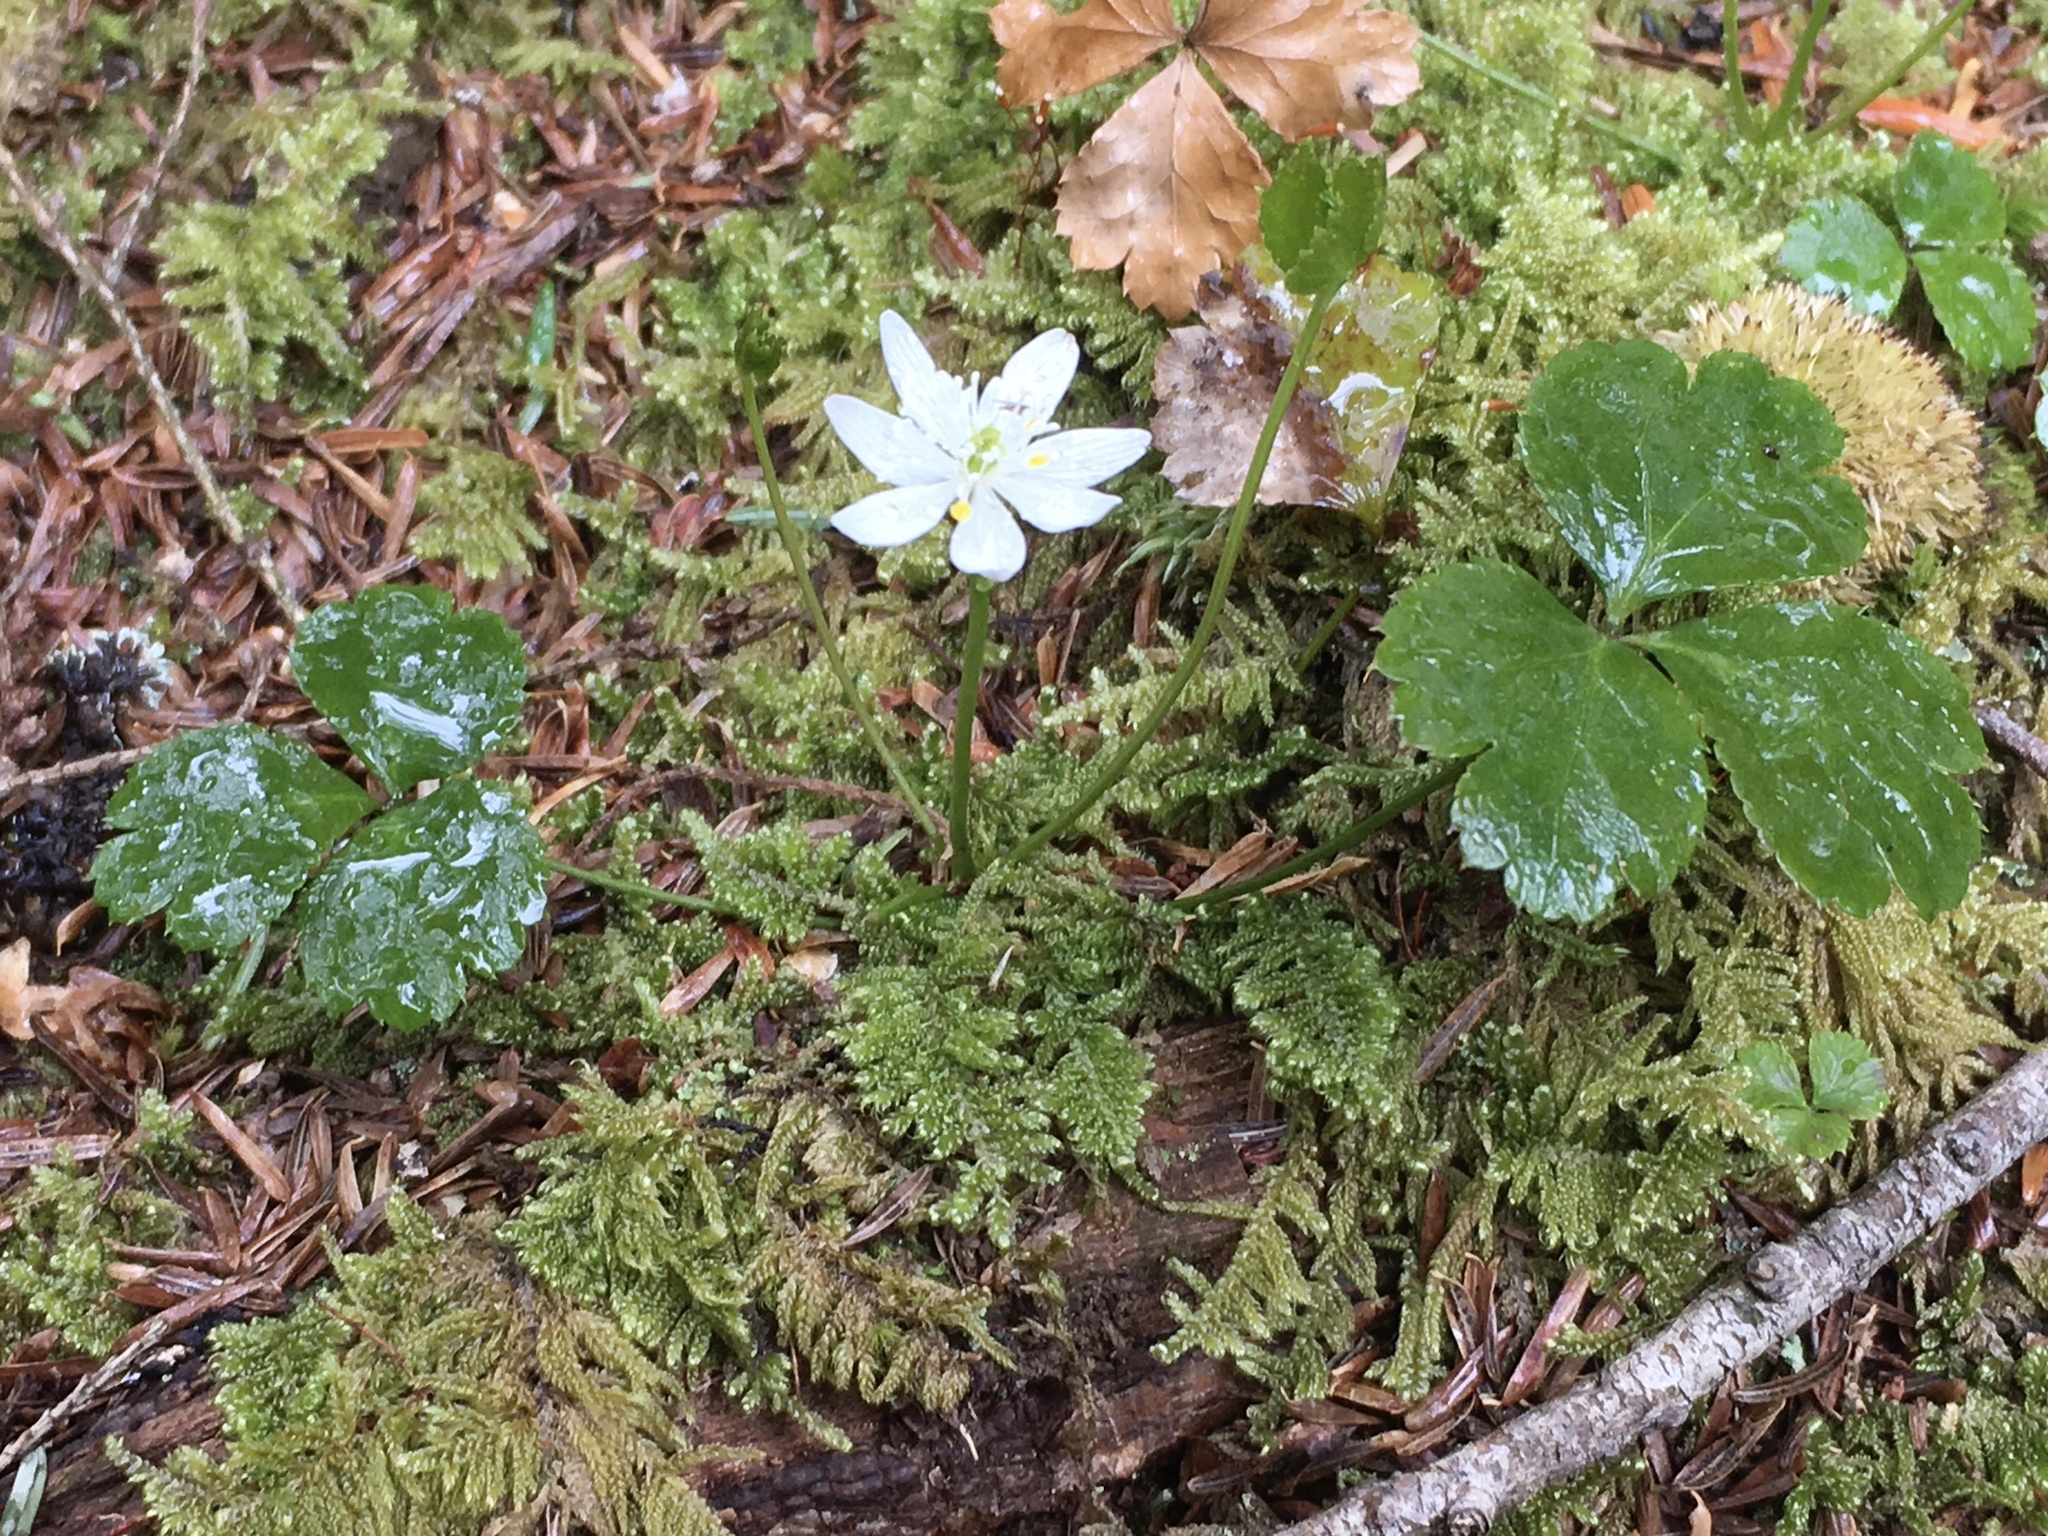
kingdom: Plantae
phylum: Tracheophyta
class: Magnoliopsida
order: Ranunculales
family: Ranunculaceae
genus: Coptis
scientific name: Coptis trifolia
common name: Canker-root
